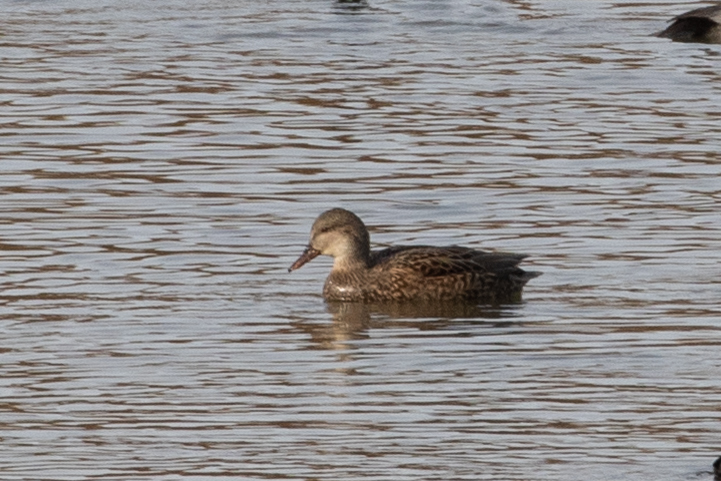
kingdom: Animalia
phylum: Chordata
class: Aves
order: Anseriformes
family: Anatidae
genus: Mareca
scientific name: Mareca strepera
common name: Gadwall
